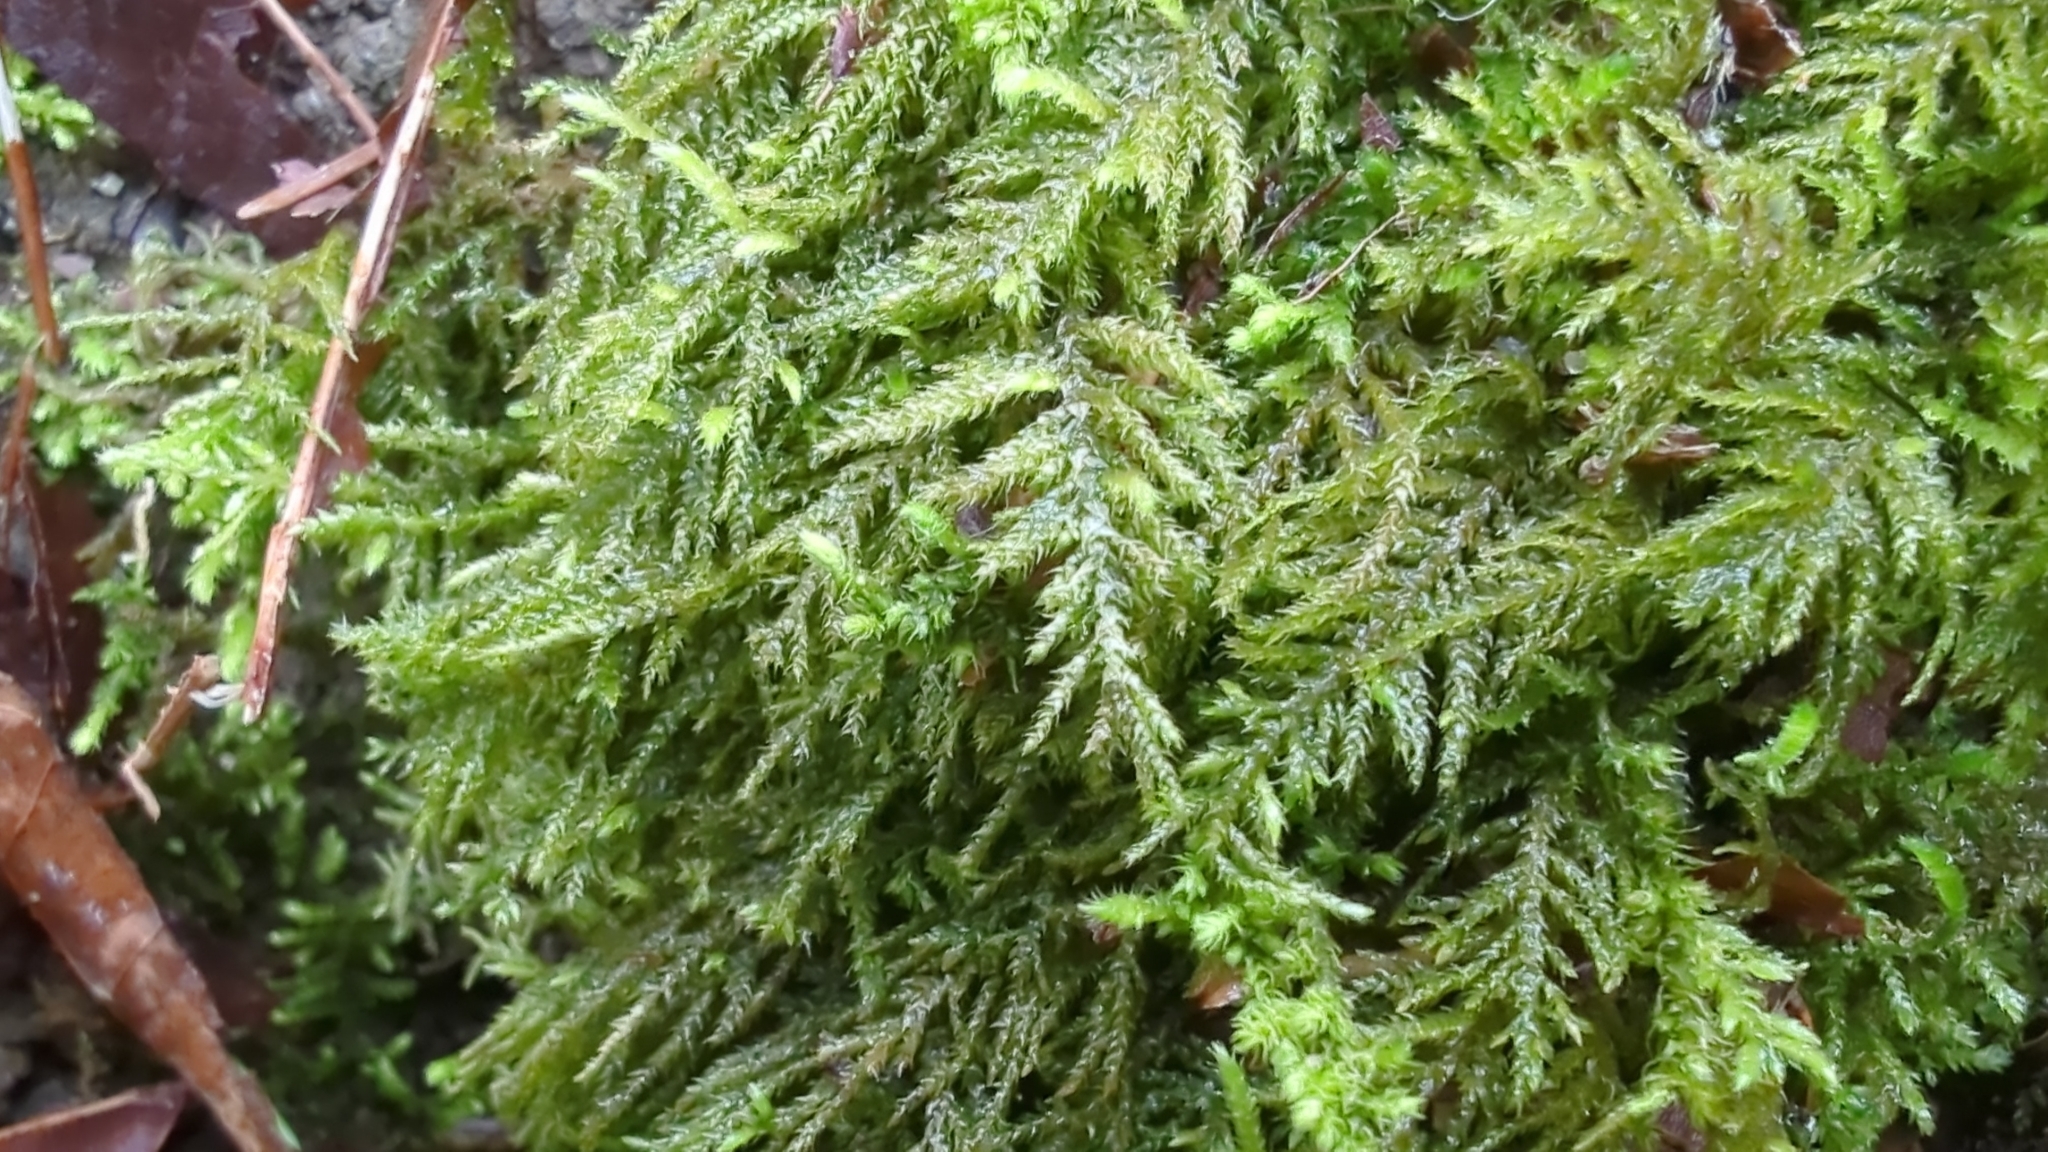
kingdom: Plantae
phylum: Bryophyta
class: Bryopsida
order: Hypnales
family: Brachytheciaceae
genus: Kindbergia
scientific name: Kindbergia oregana
